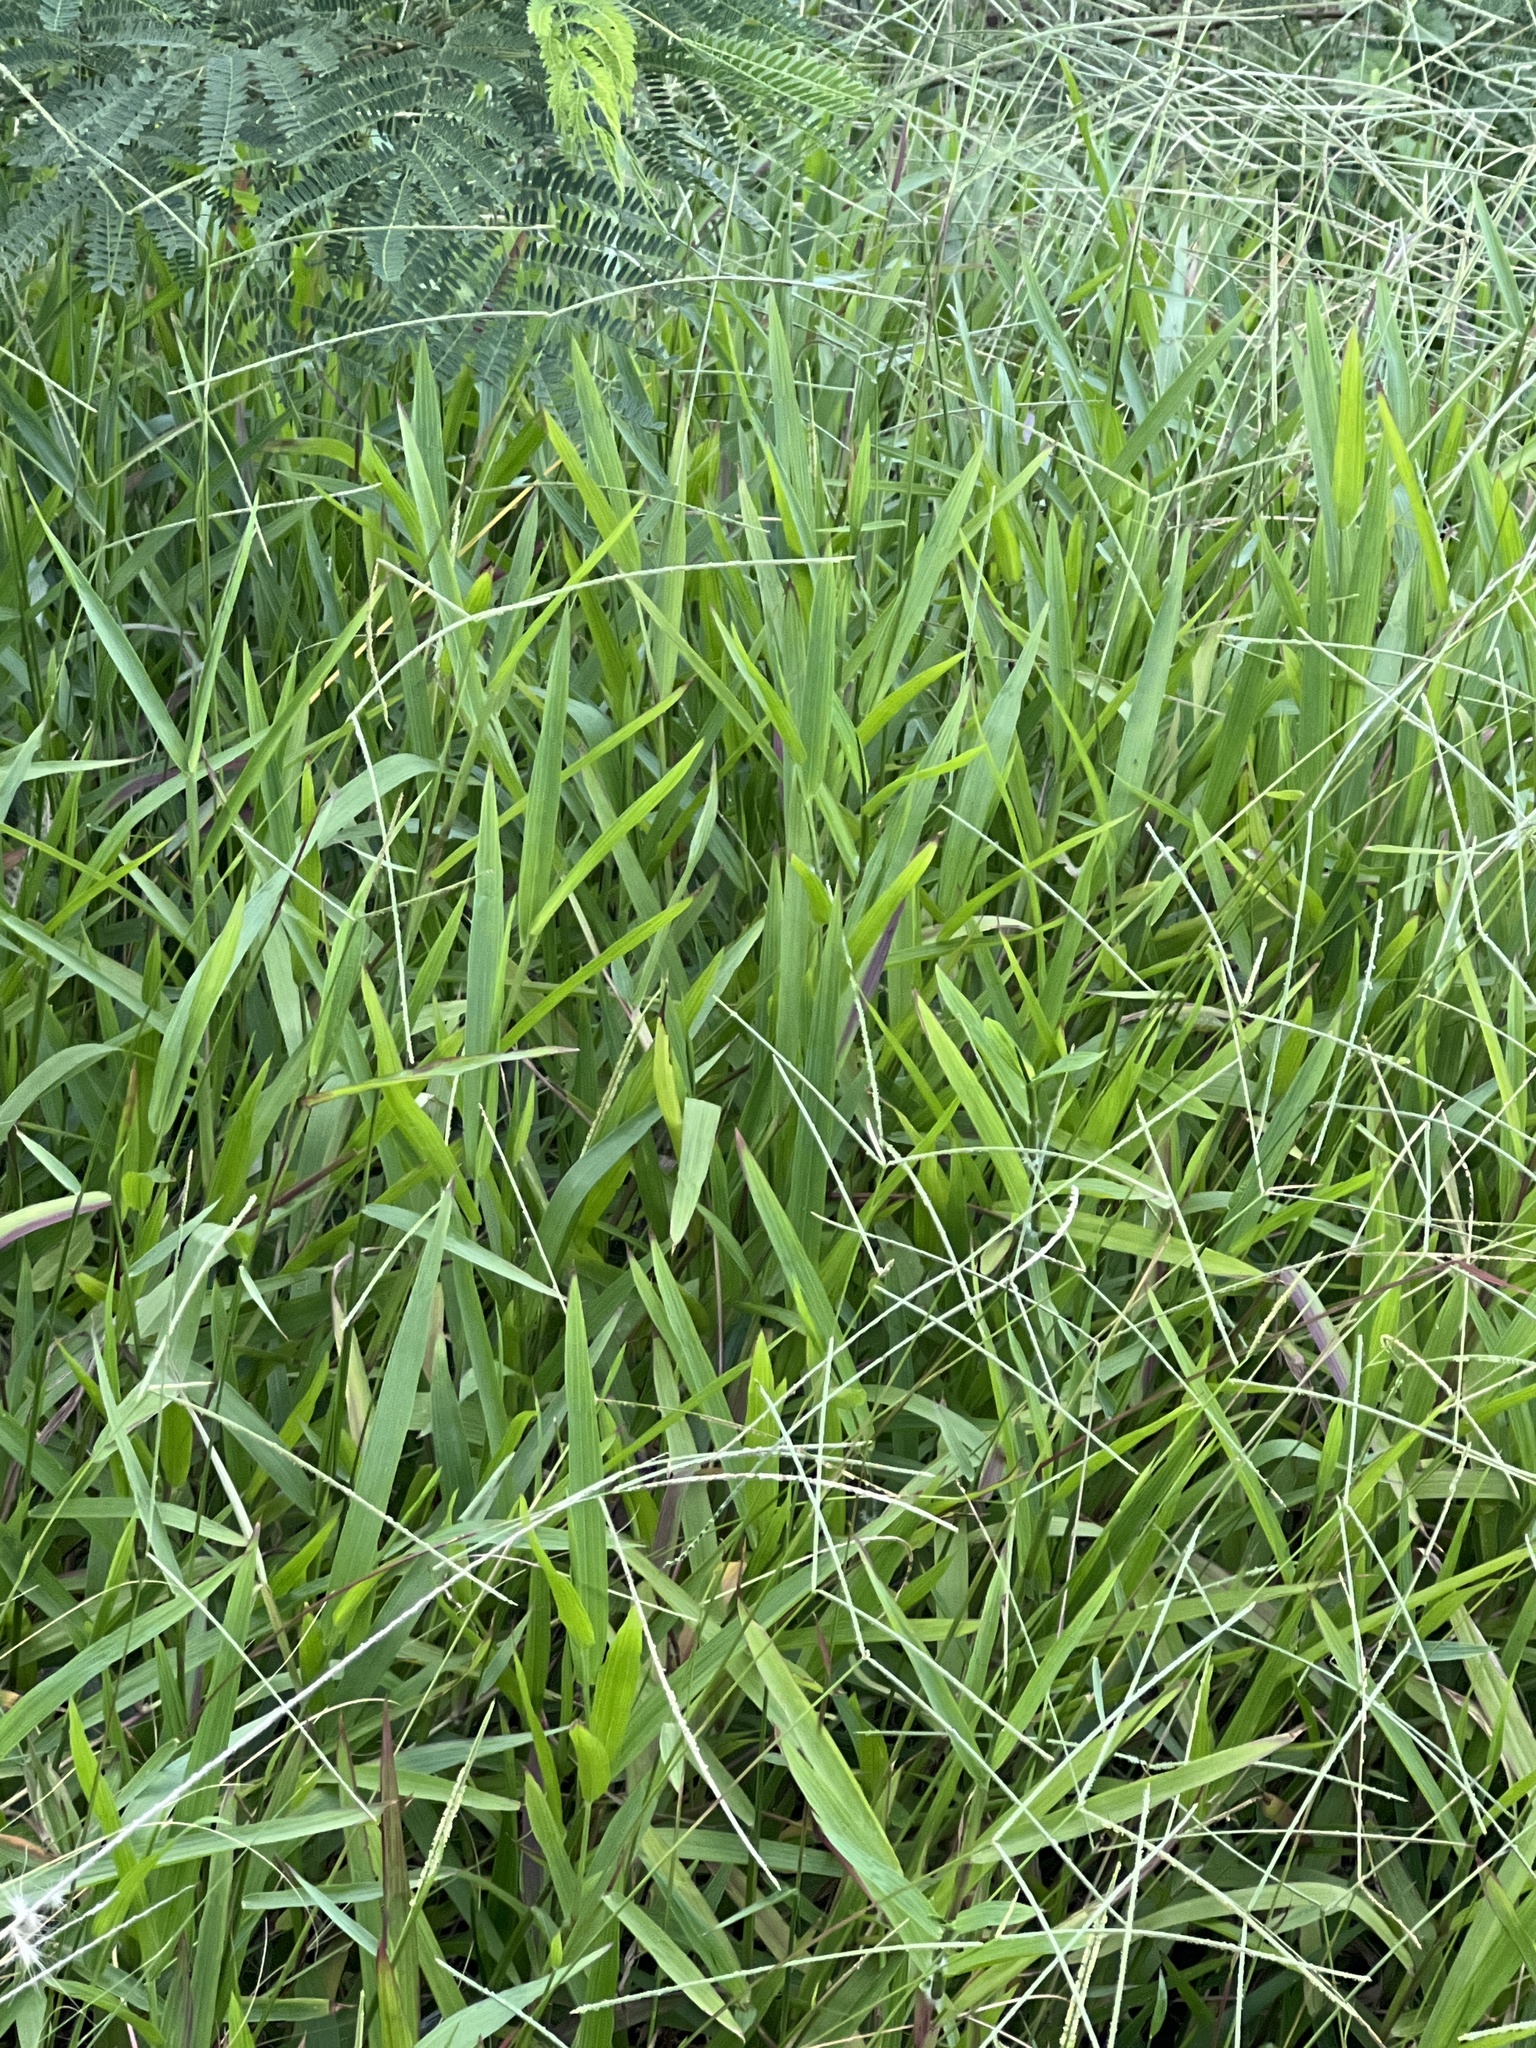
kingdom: Plantae
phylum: Tracheophyta
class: Liliopsida
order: Poales
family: Poaceae
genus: Paspalum
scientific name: Paspalum conjugatum
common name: Hilograss
